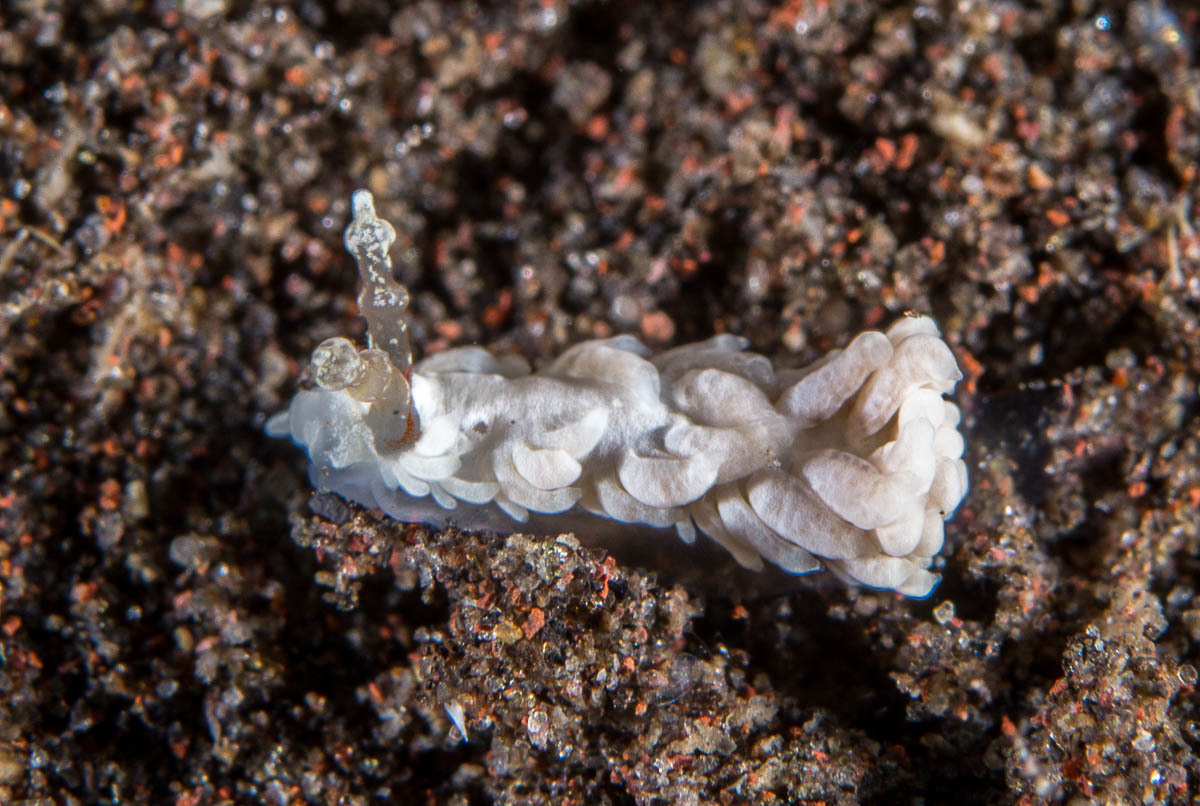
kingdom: Animalia
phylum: Mollusca
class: Gastropoda
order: Nudibranchia
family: Aeolidiidae
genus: Bulbaeolidia
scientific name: Bulbaeolidia alba
